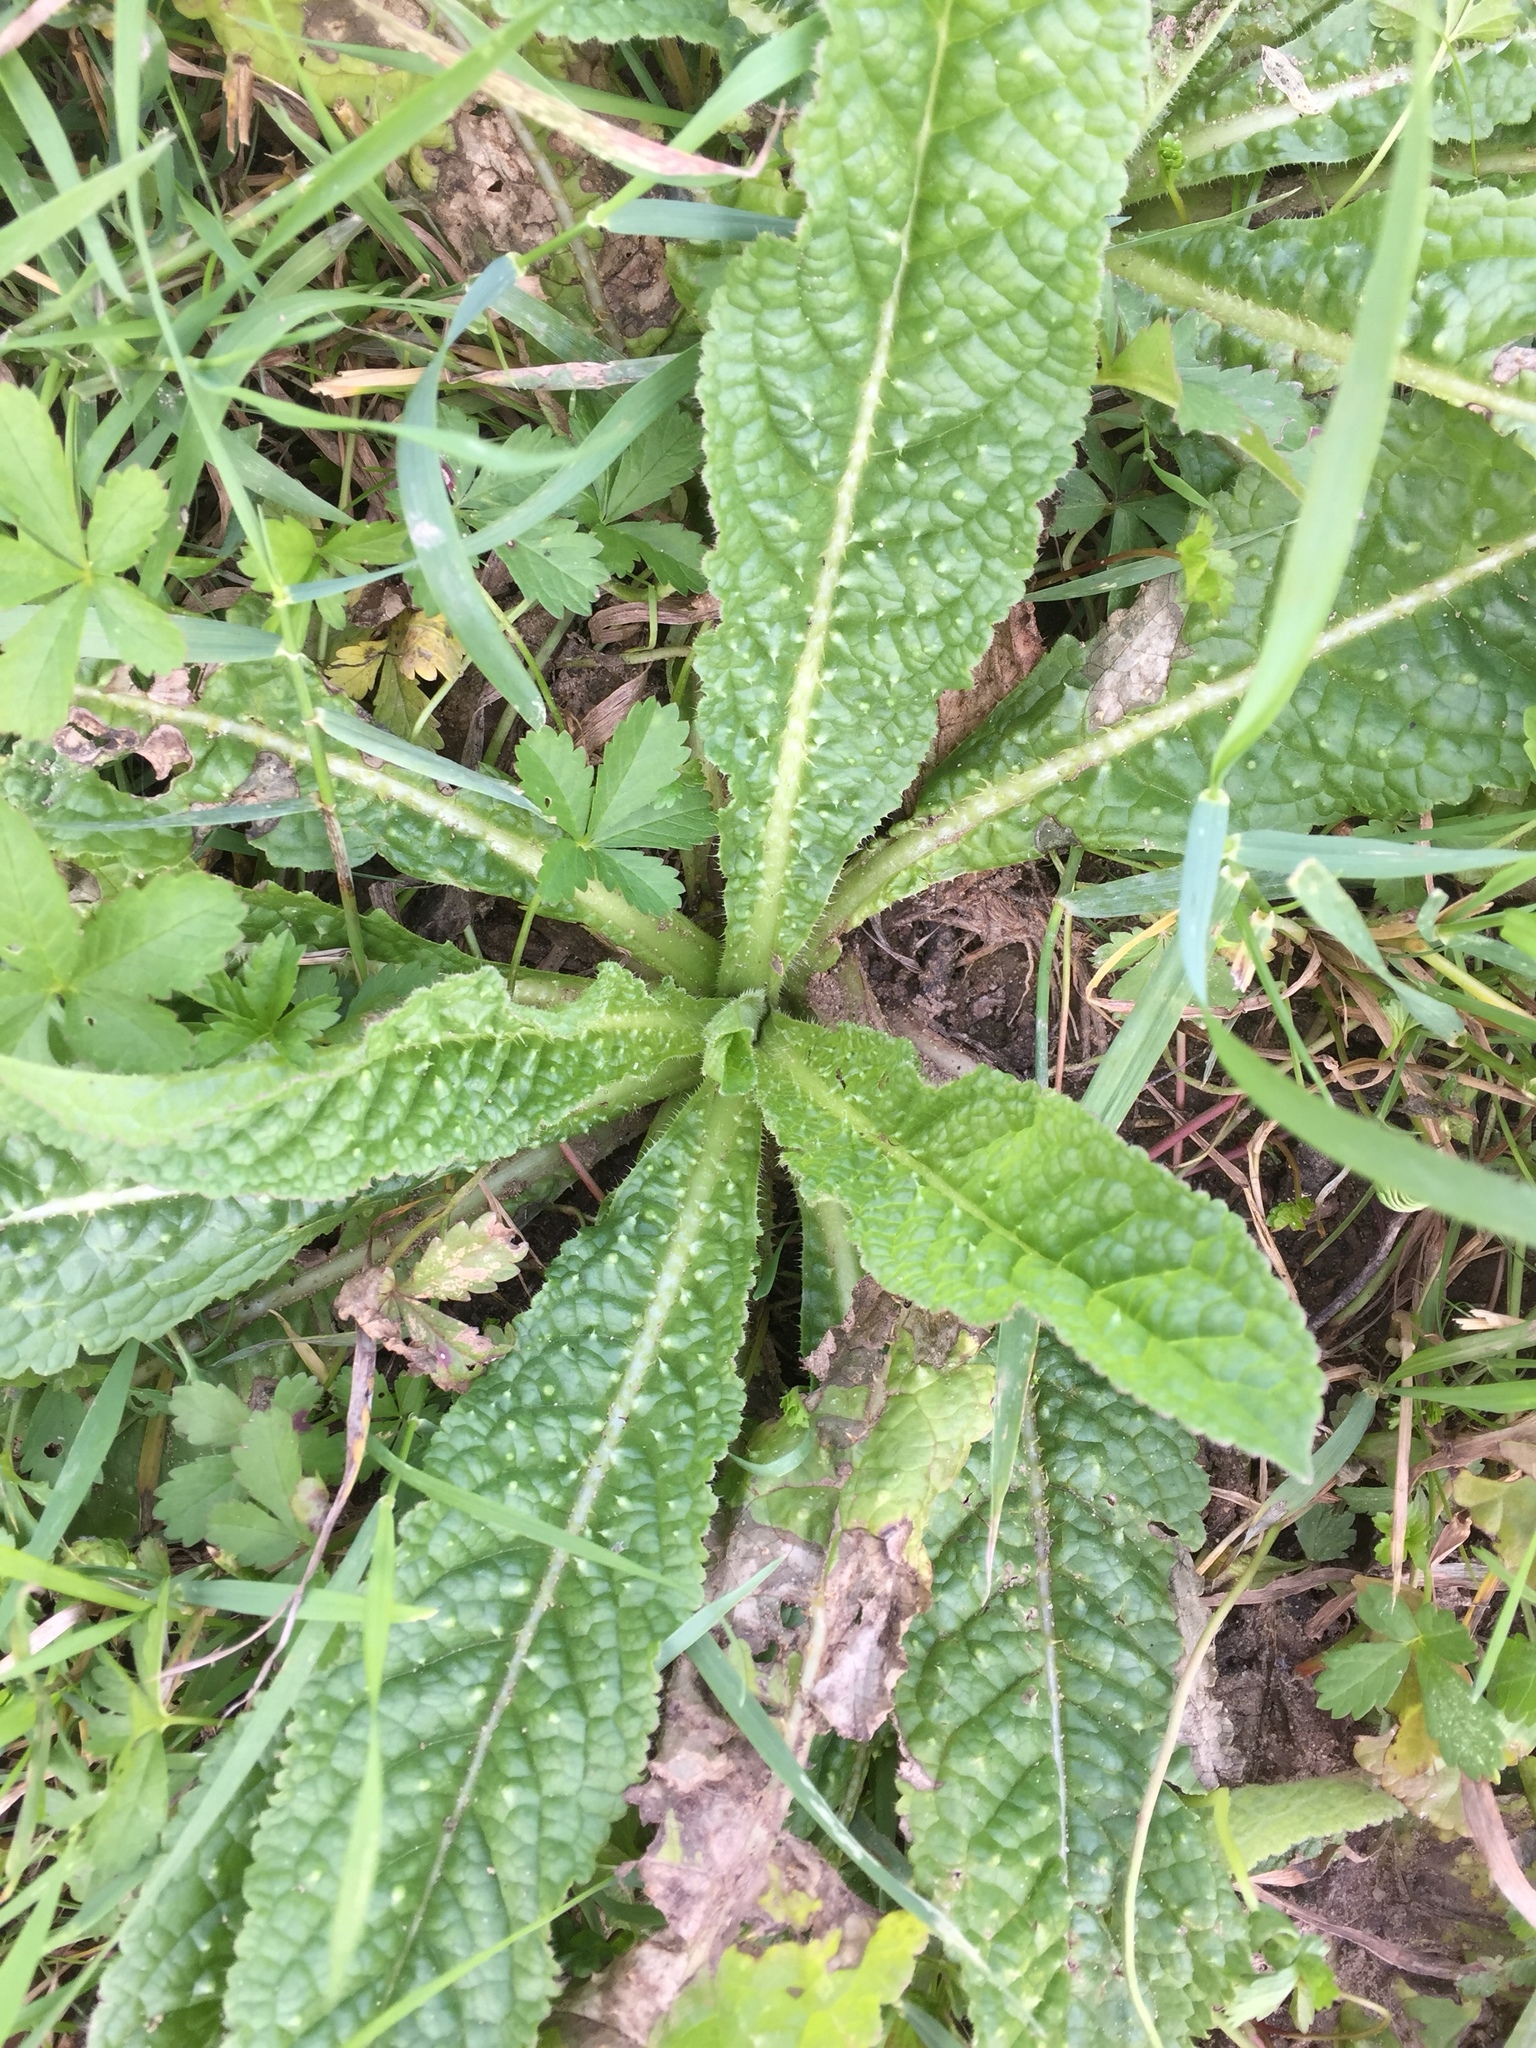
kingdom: Plantae
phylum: Tracheophyta
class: Magnoliopsida
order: Dipsacales
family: Caprifoliaceae
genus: Dipsacus
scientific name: Dipsacus fullonum
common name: Teasel
